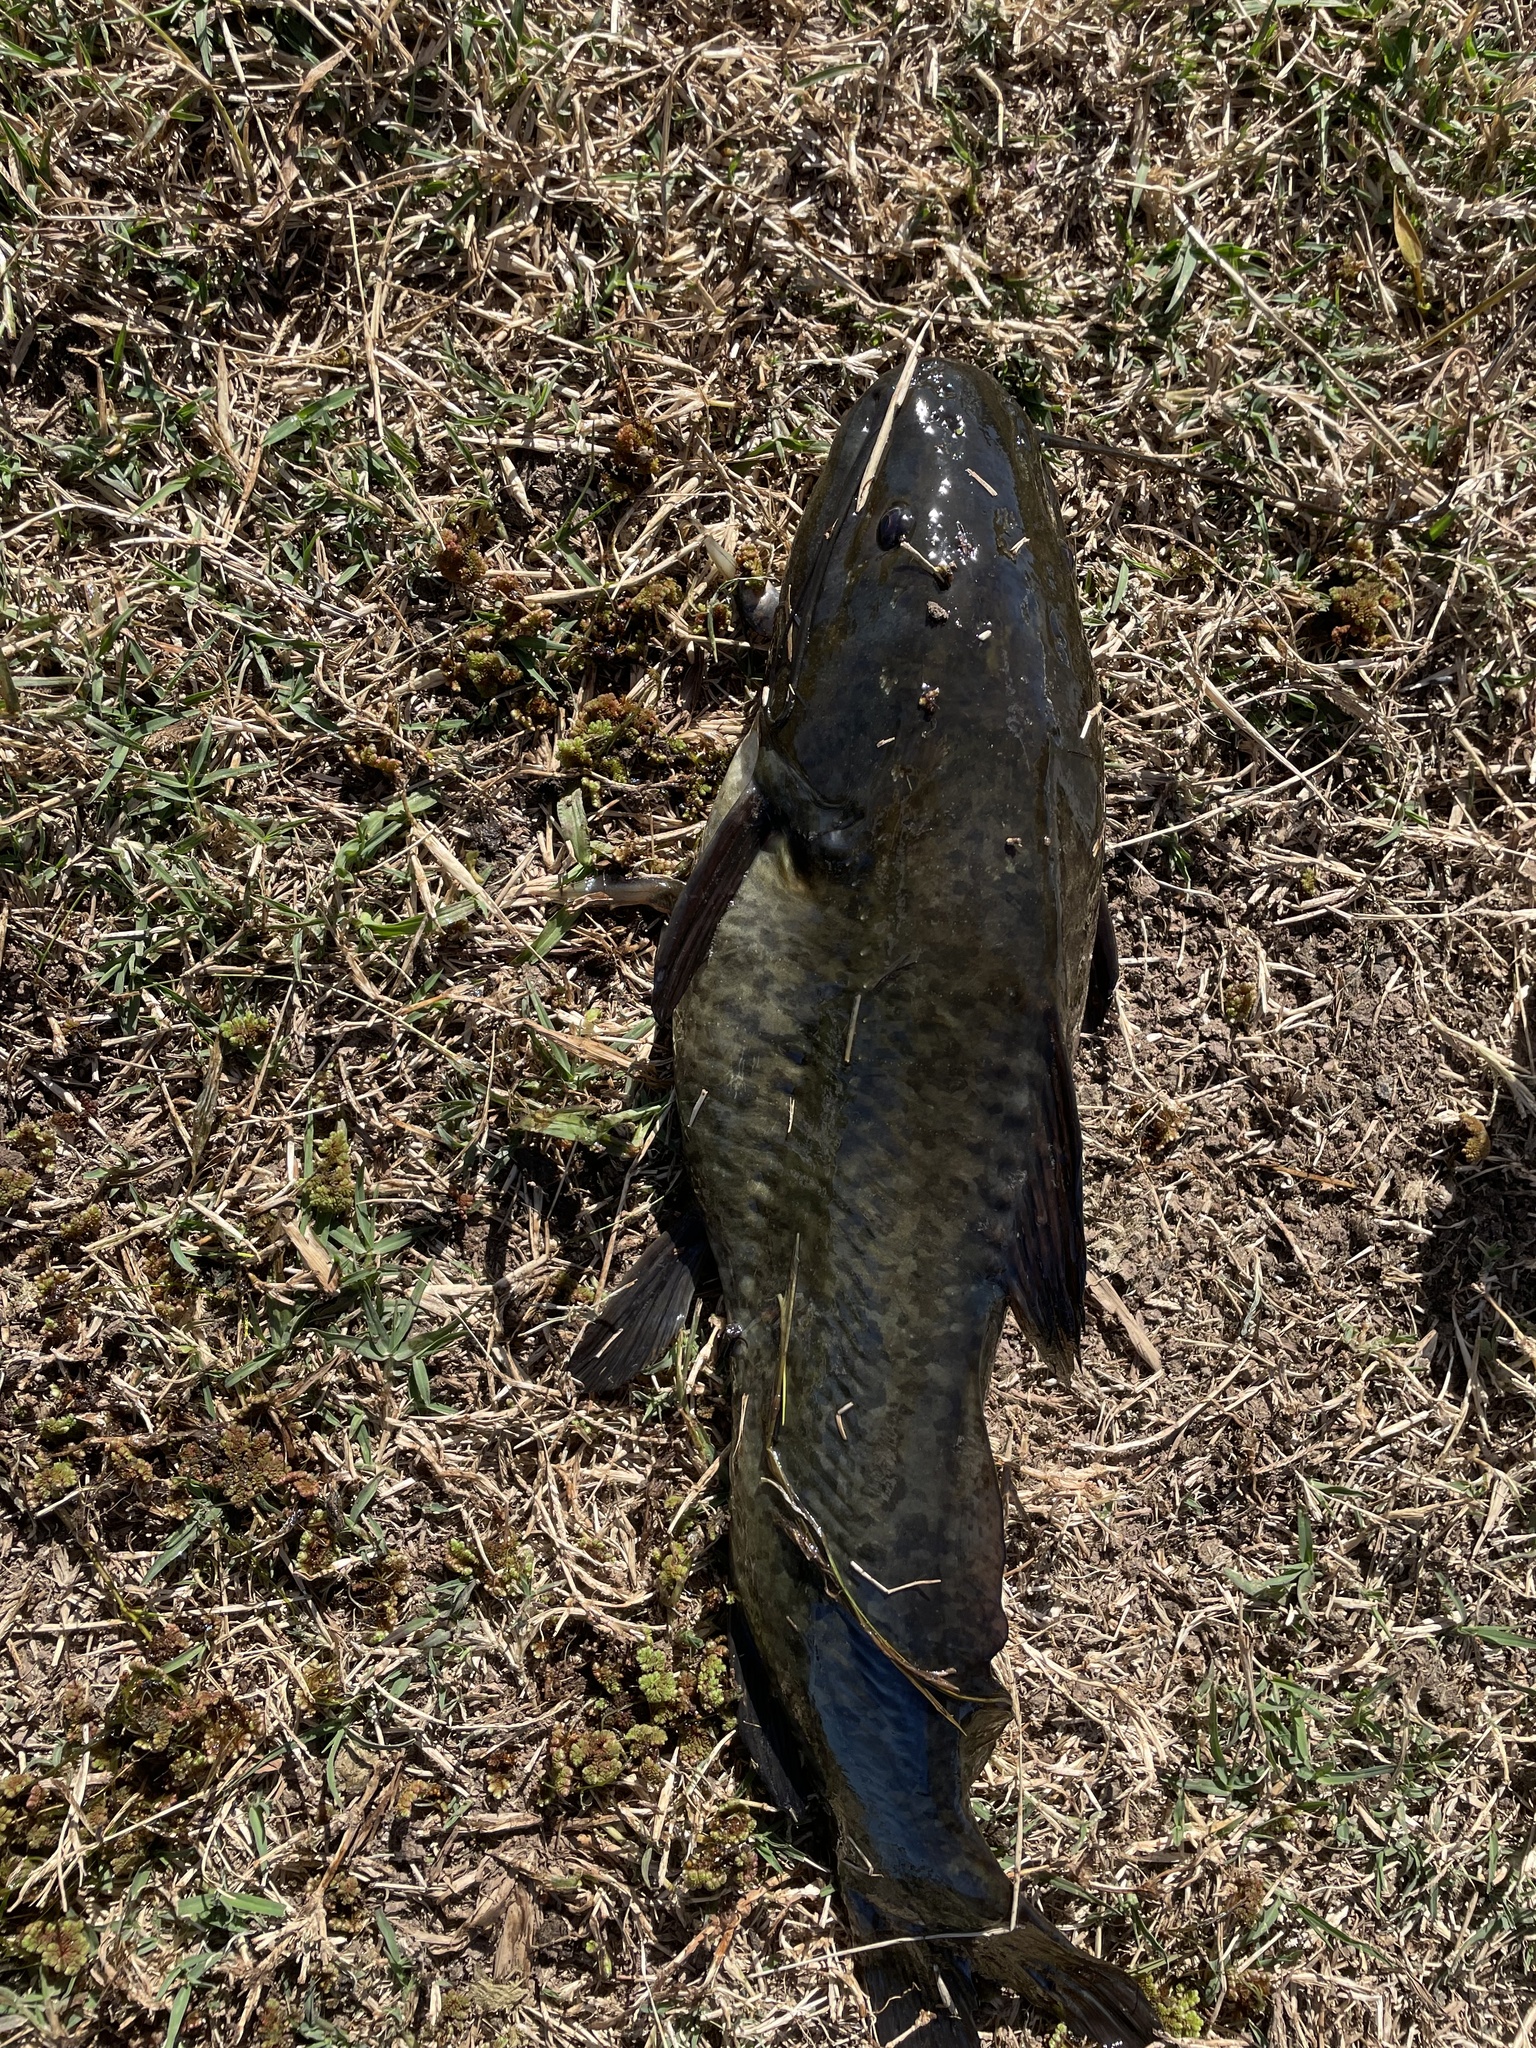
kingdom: Animalia
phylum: Chordata
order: Siluriformes
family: Heptapteridae
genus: Rhamdia
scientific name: Rhamdia quelen
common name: Catfish
